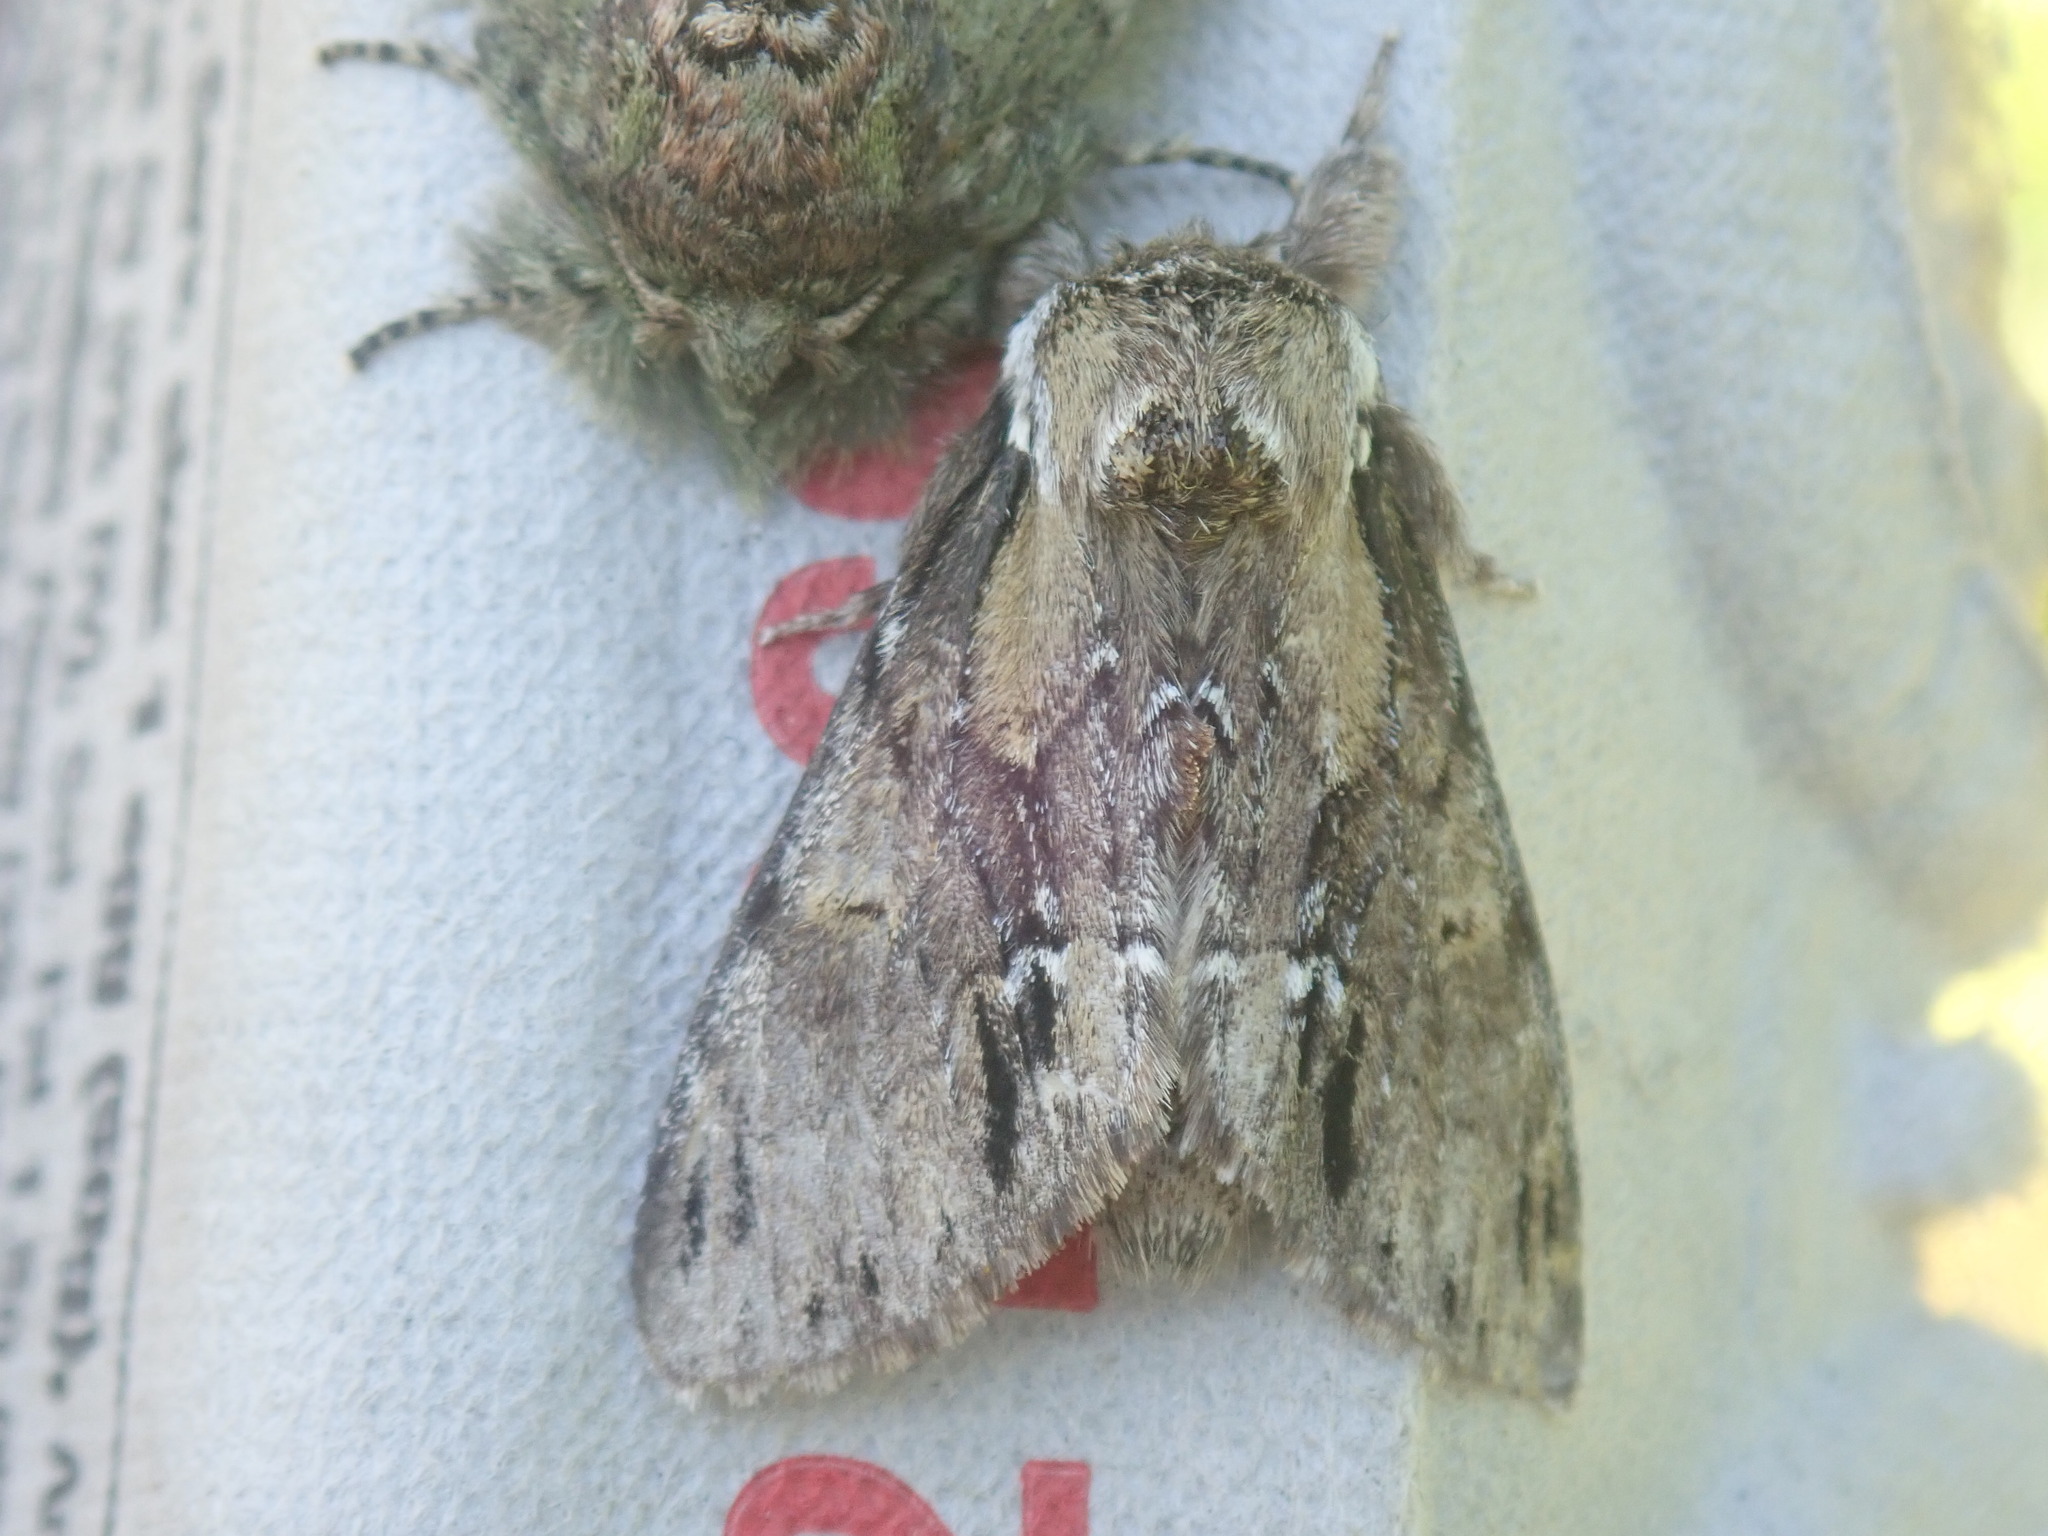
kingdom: Animalia
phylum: Arthropoda
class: Insecta
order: Lepidoptera
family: Notodontidae
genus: Paraeschra
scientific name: Paraeschra georgica
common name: Georgian prominent
